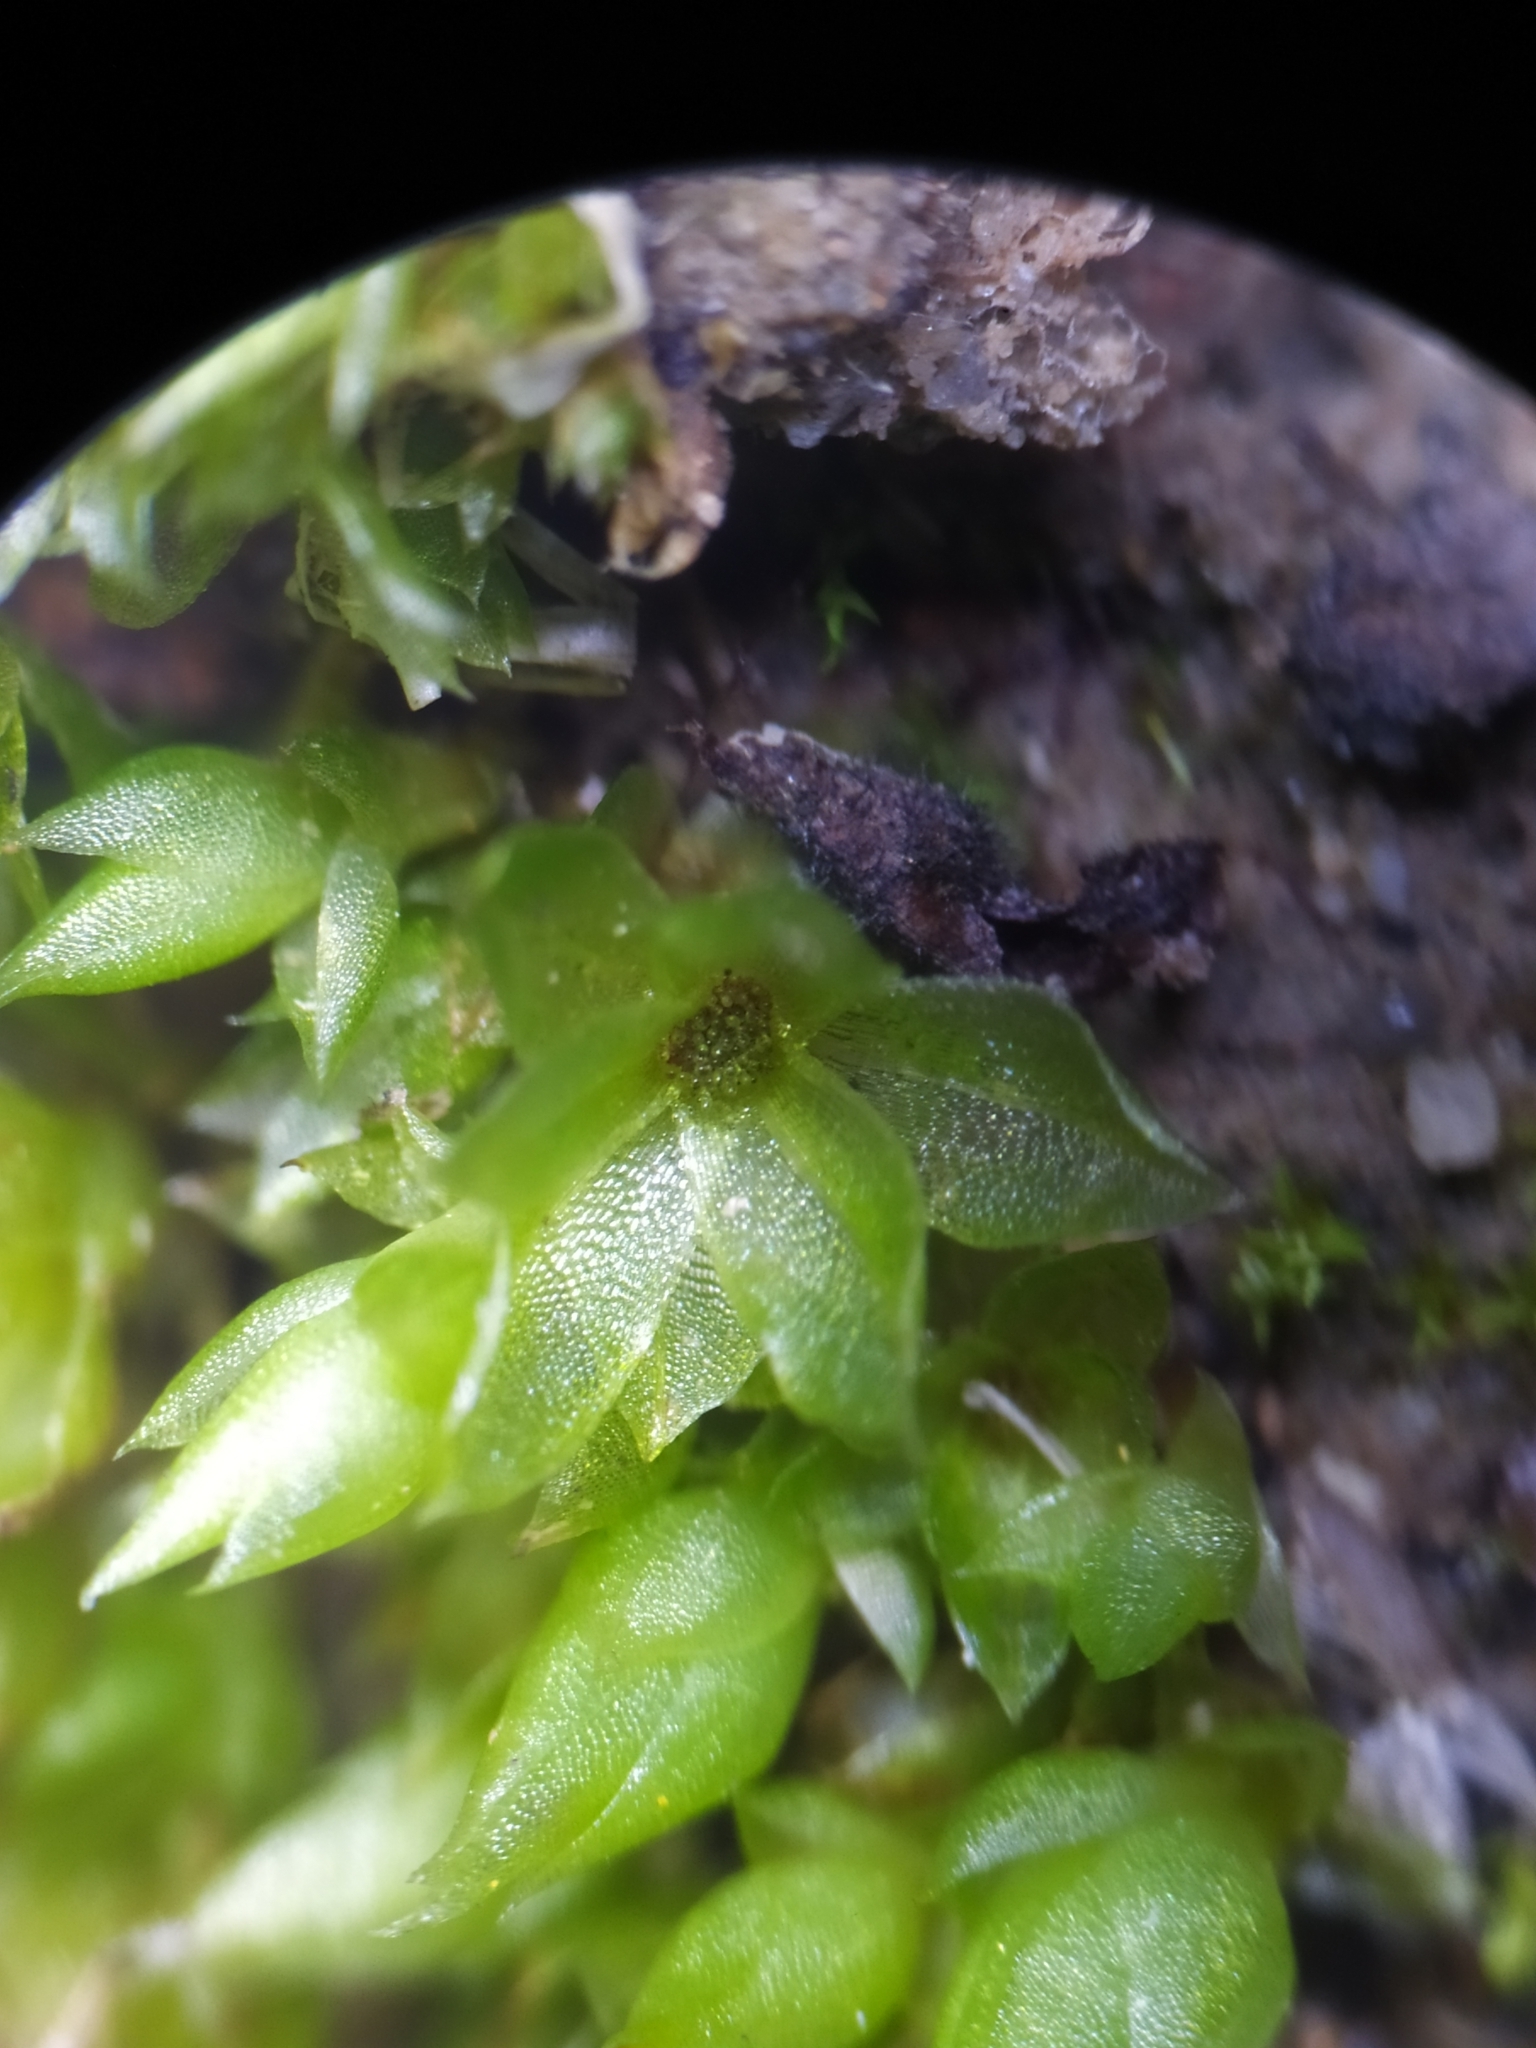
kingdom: Plantae
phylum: Bryophyta
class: Bryopsida
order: Funariales
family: Funariaceae
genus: Funaria
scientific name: Funaria hygrometrica
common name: Common cord moss
